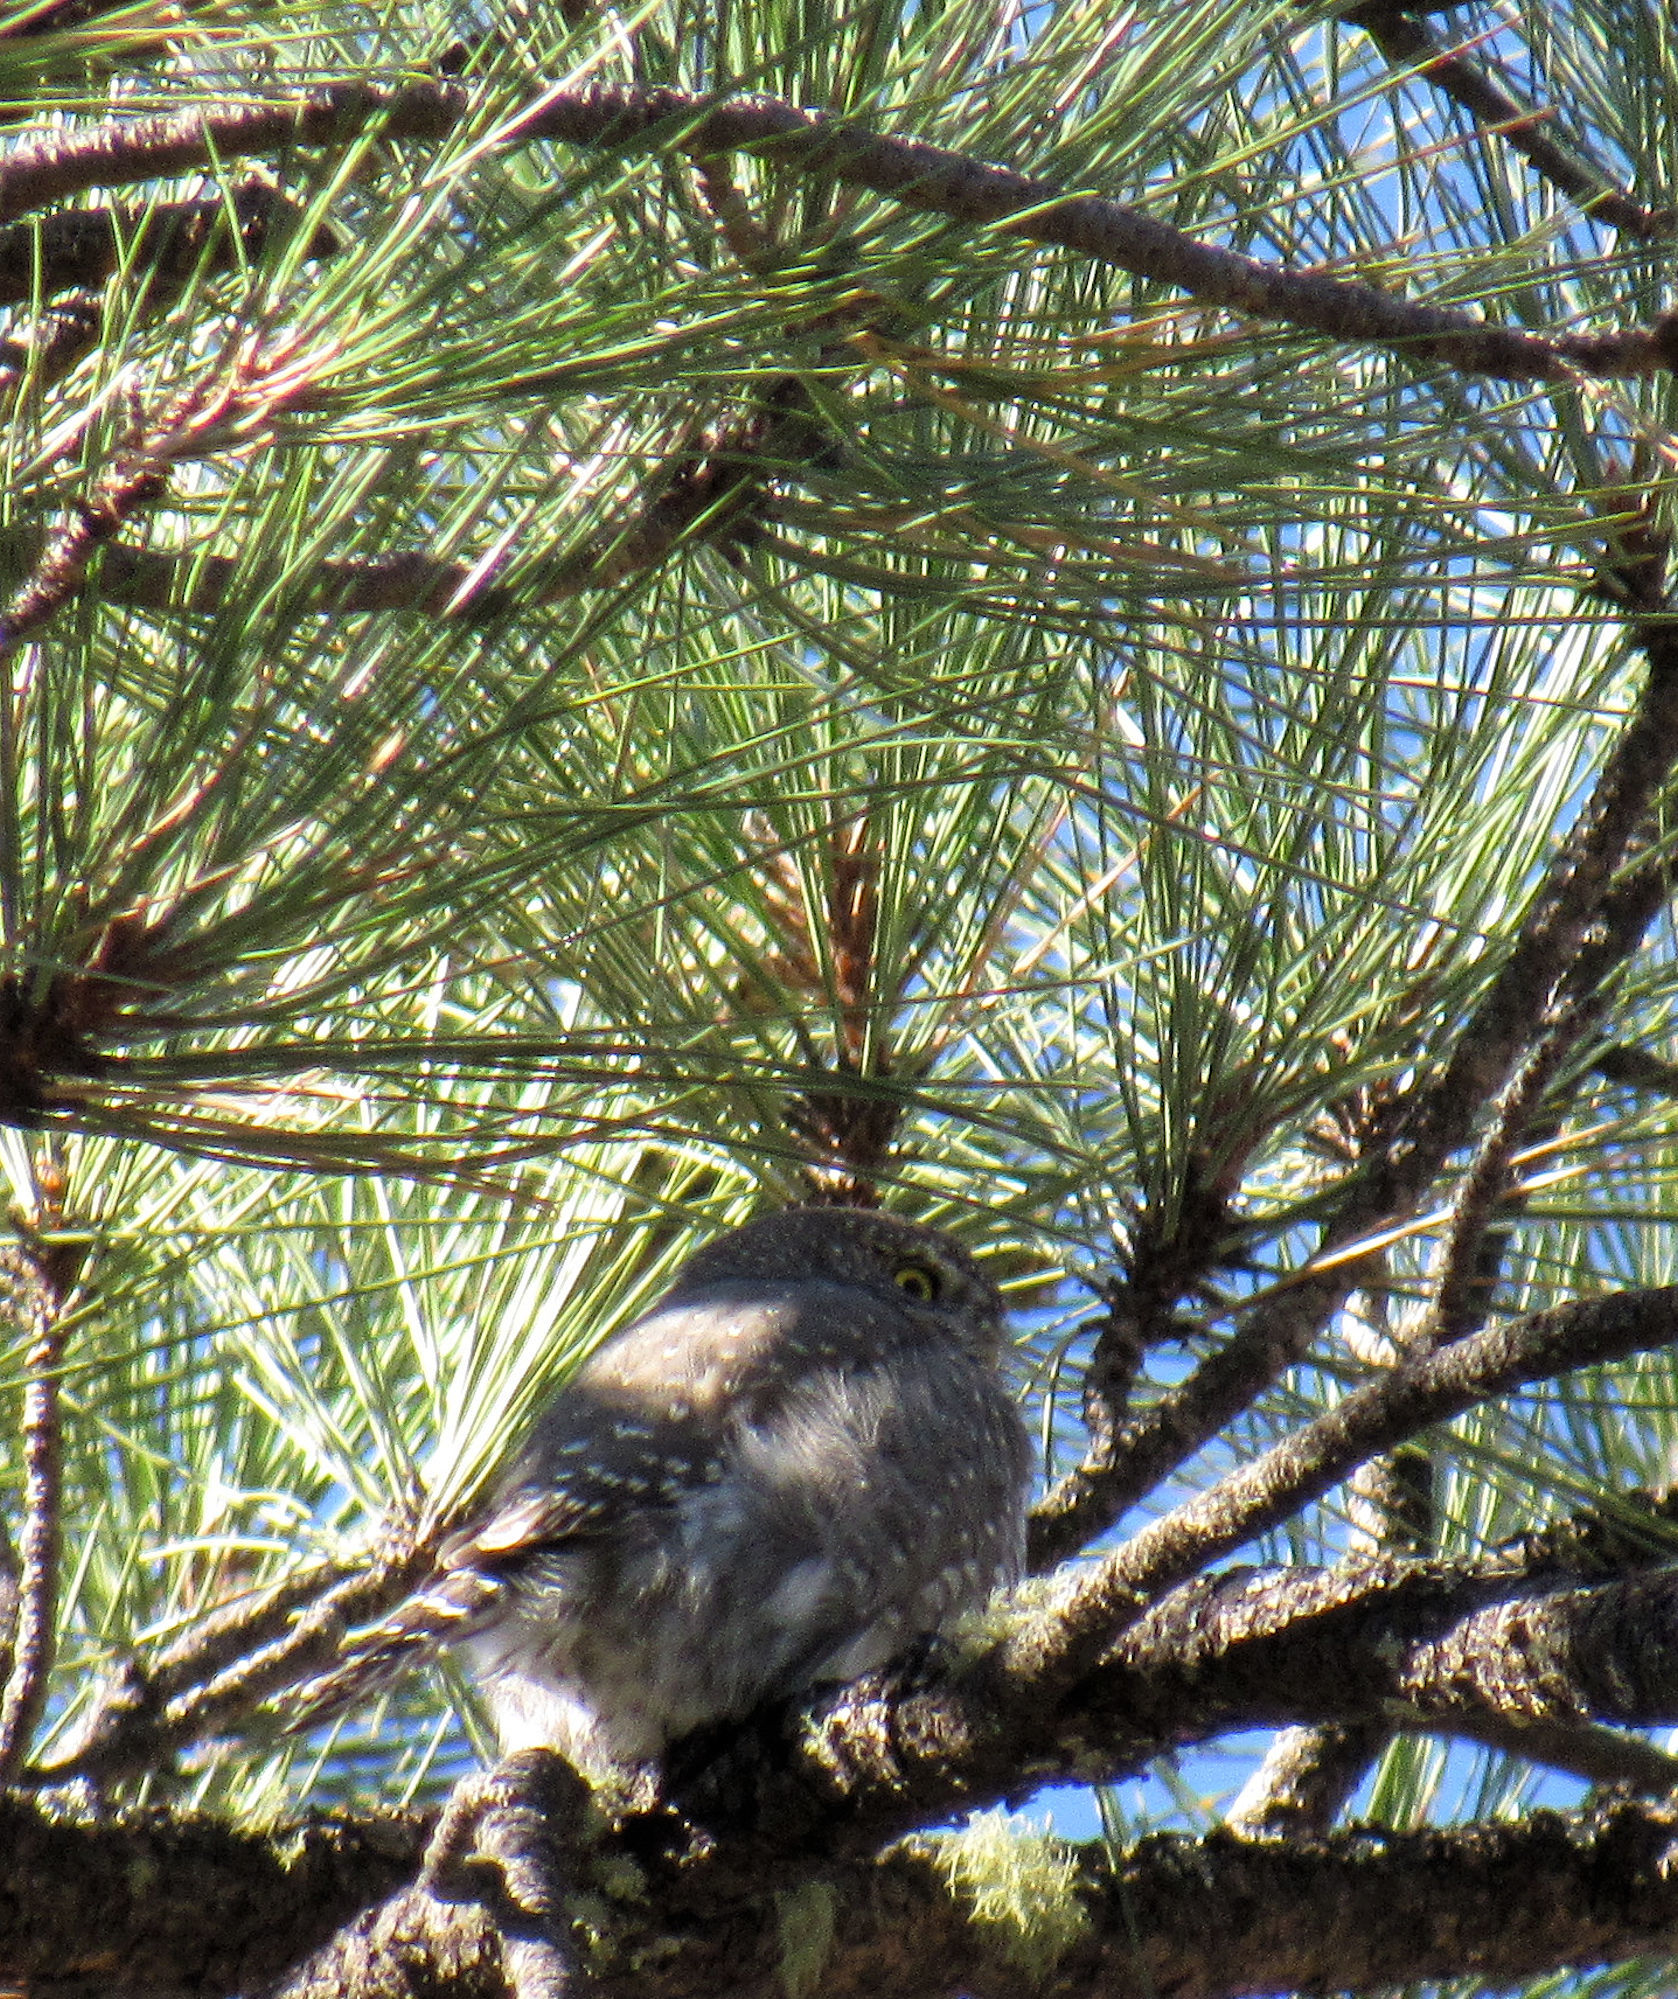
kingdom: Animalia
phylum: Chordata
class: Aves
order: Strigiformes
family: Strigidae
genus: Glaucidium
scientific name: Glaucidium gnoma
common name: Northern pygmy-owl
